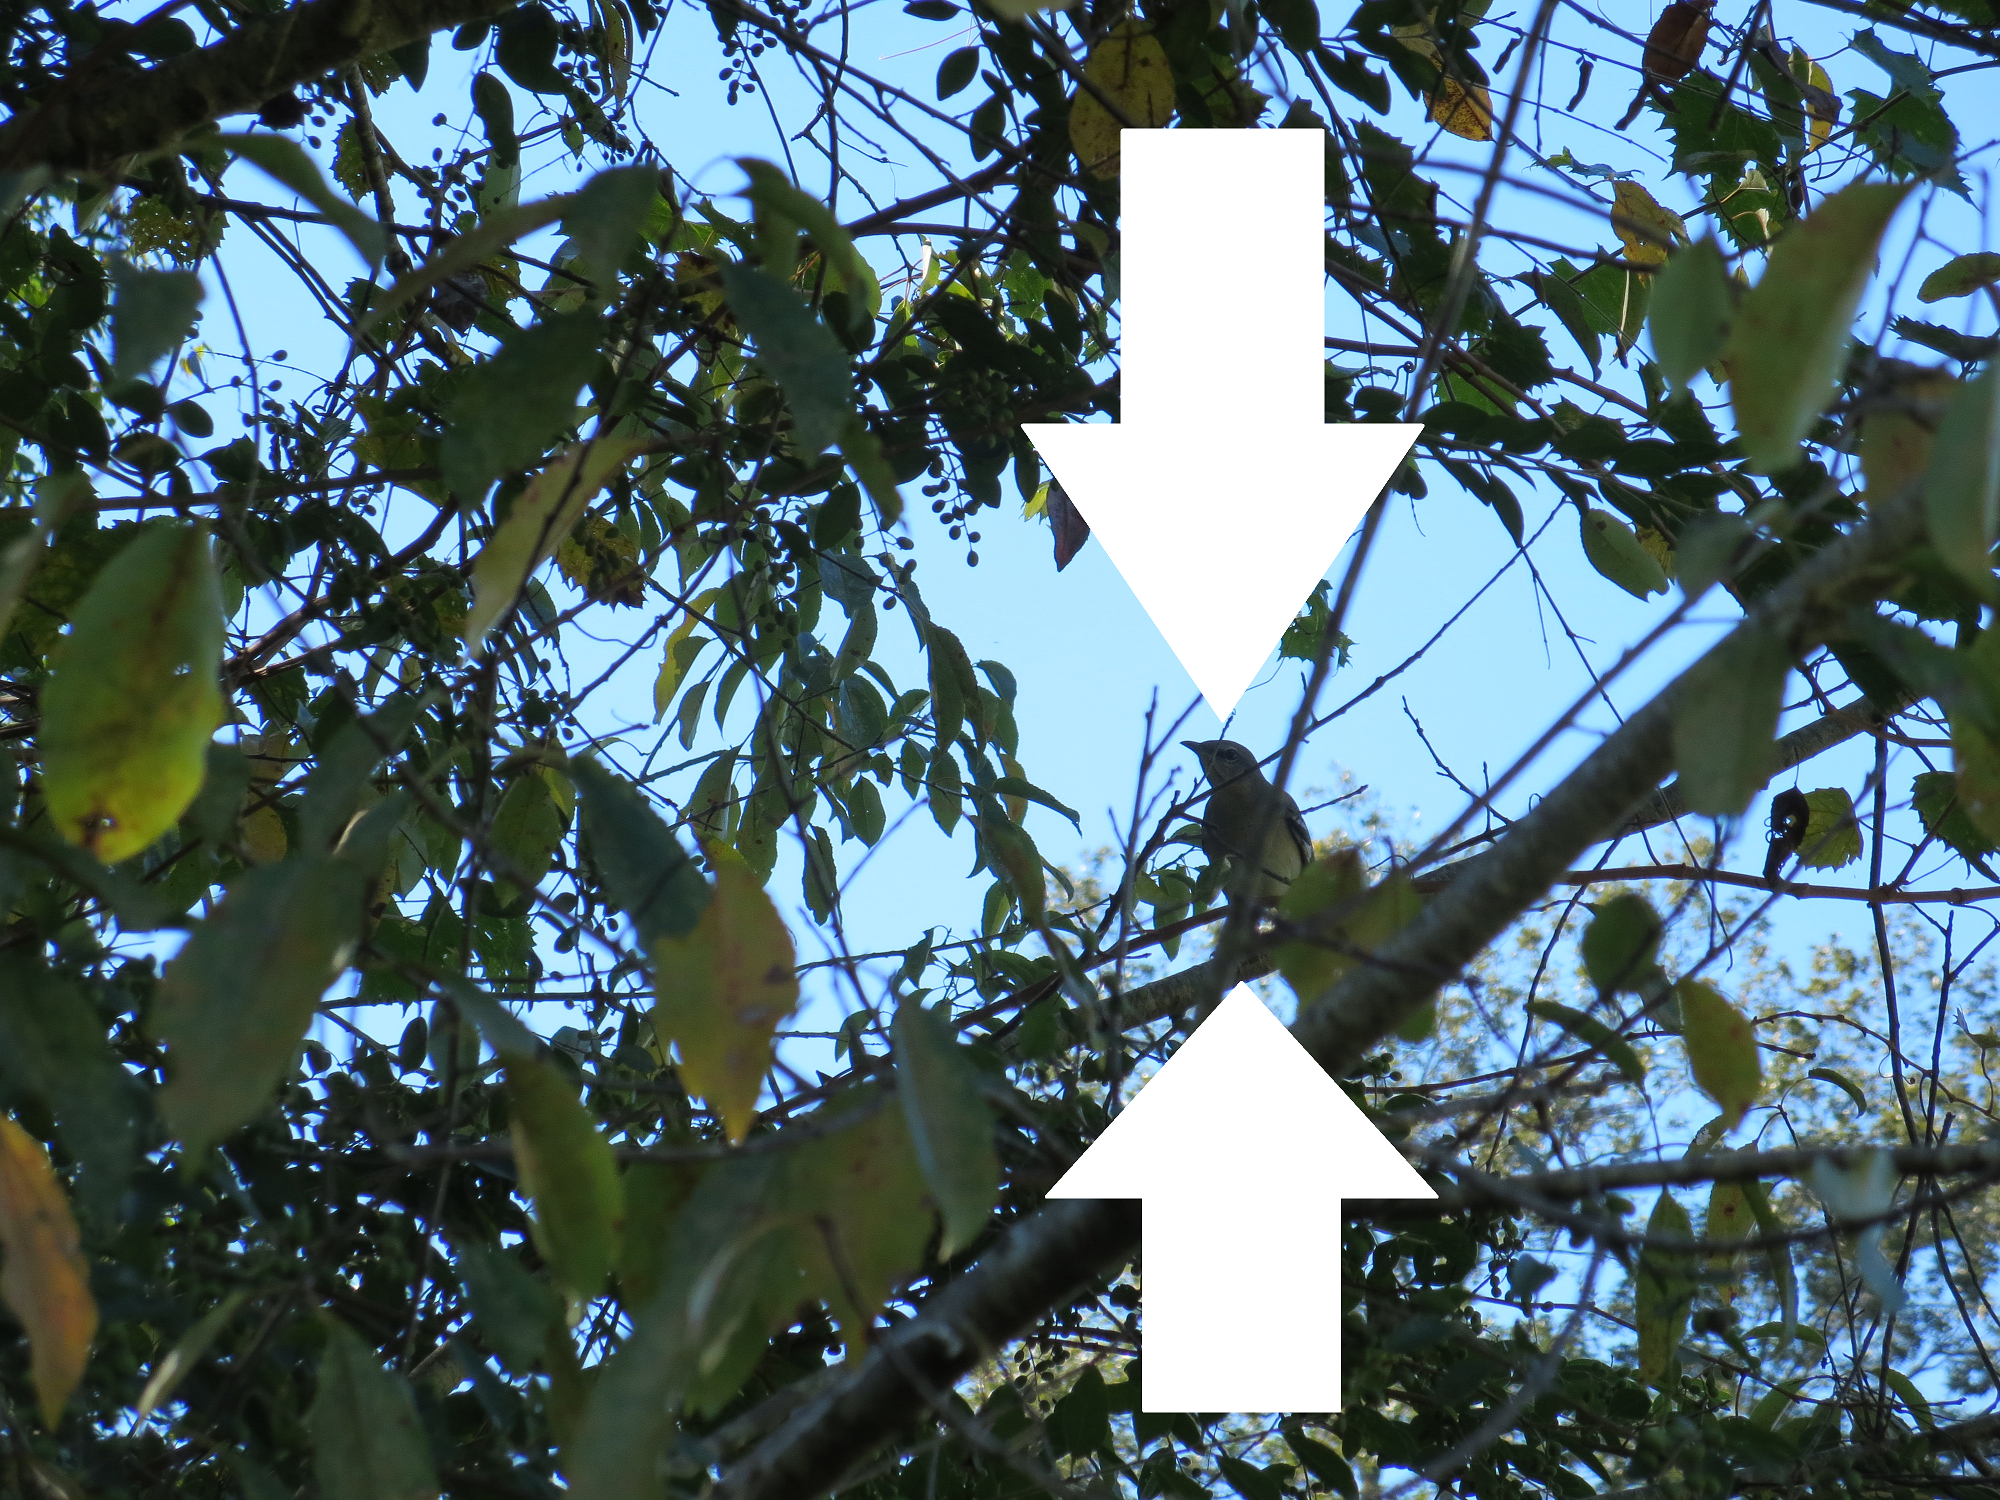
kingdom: Animalia
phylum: Chordata
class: Aves
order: Passeriformes
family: Mimidae
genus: Mimus
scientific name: Mimus polyglottos
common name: Northern mockingbird
